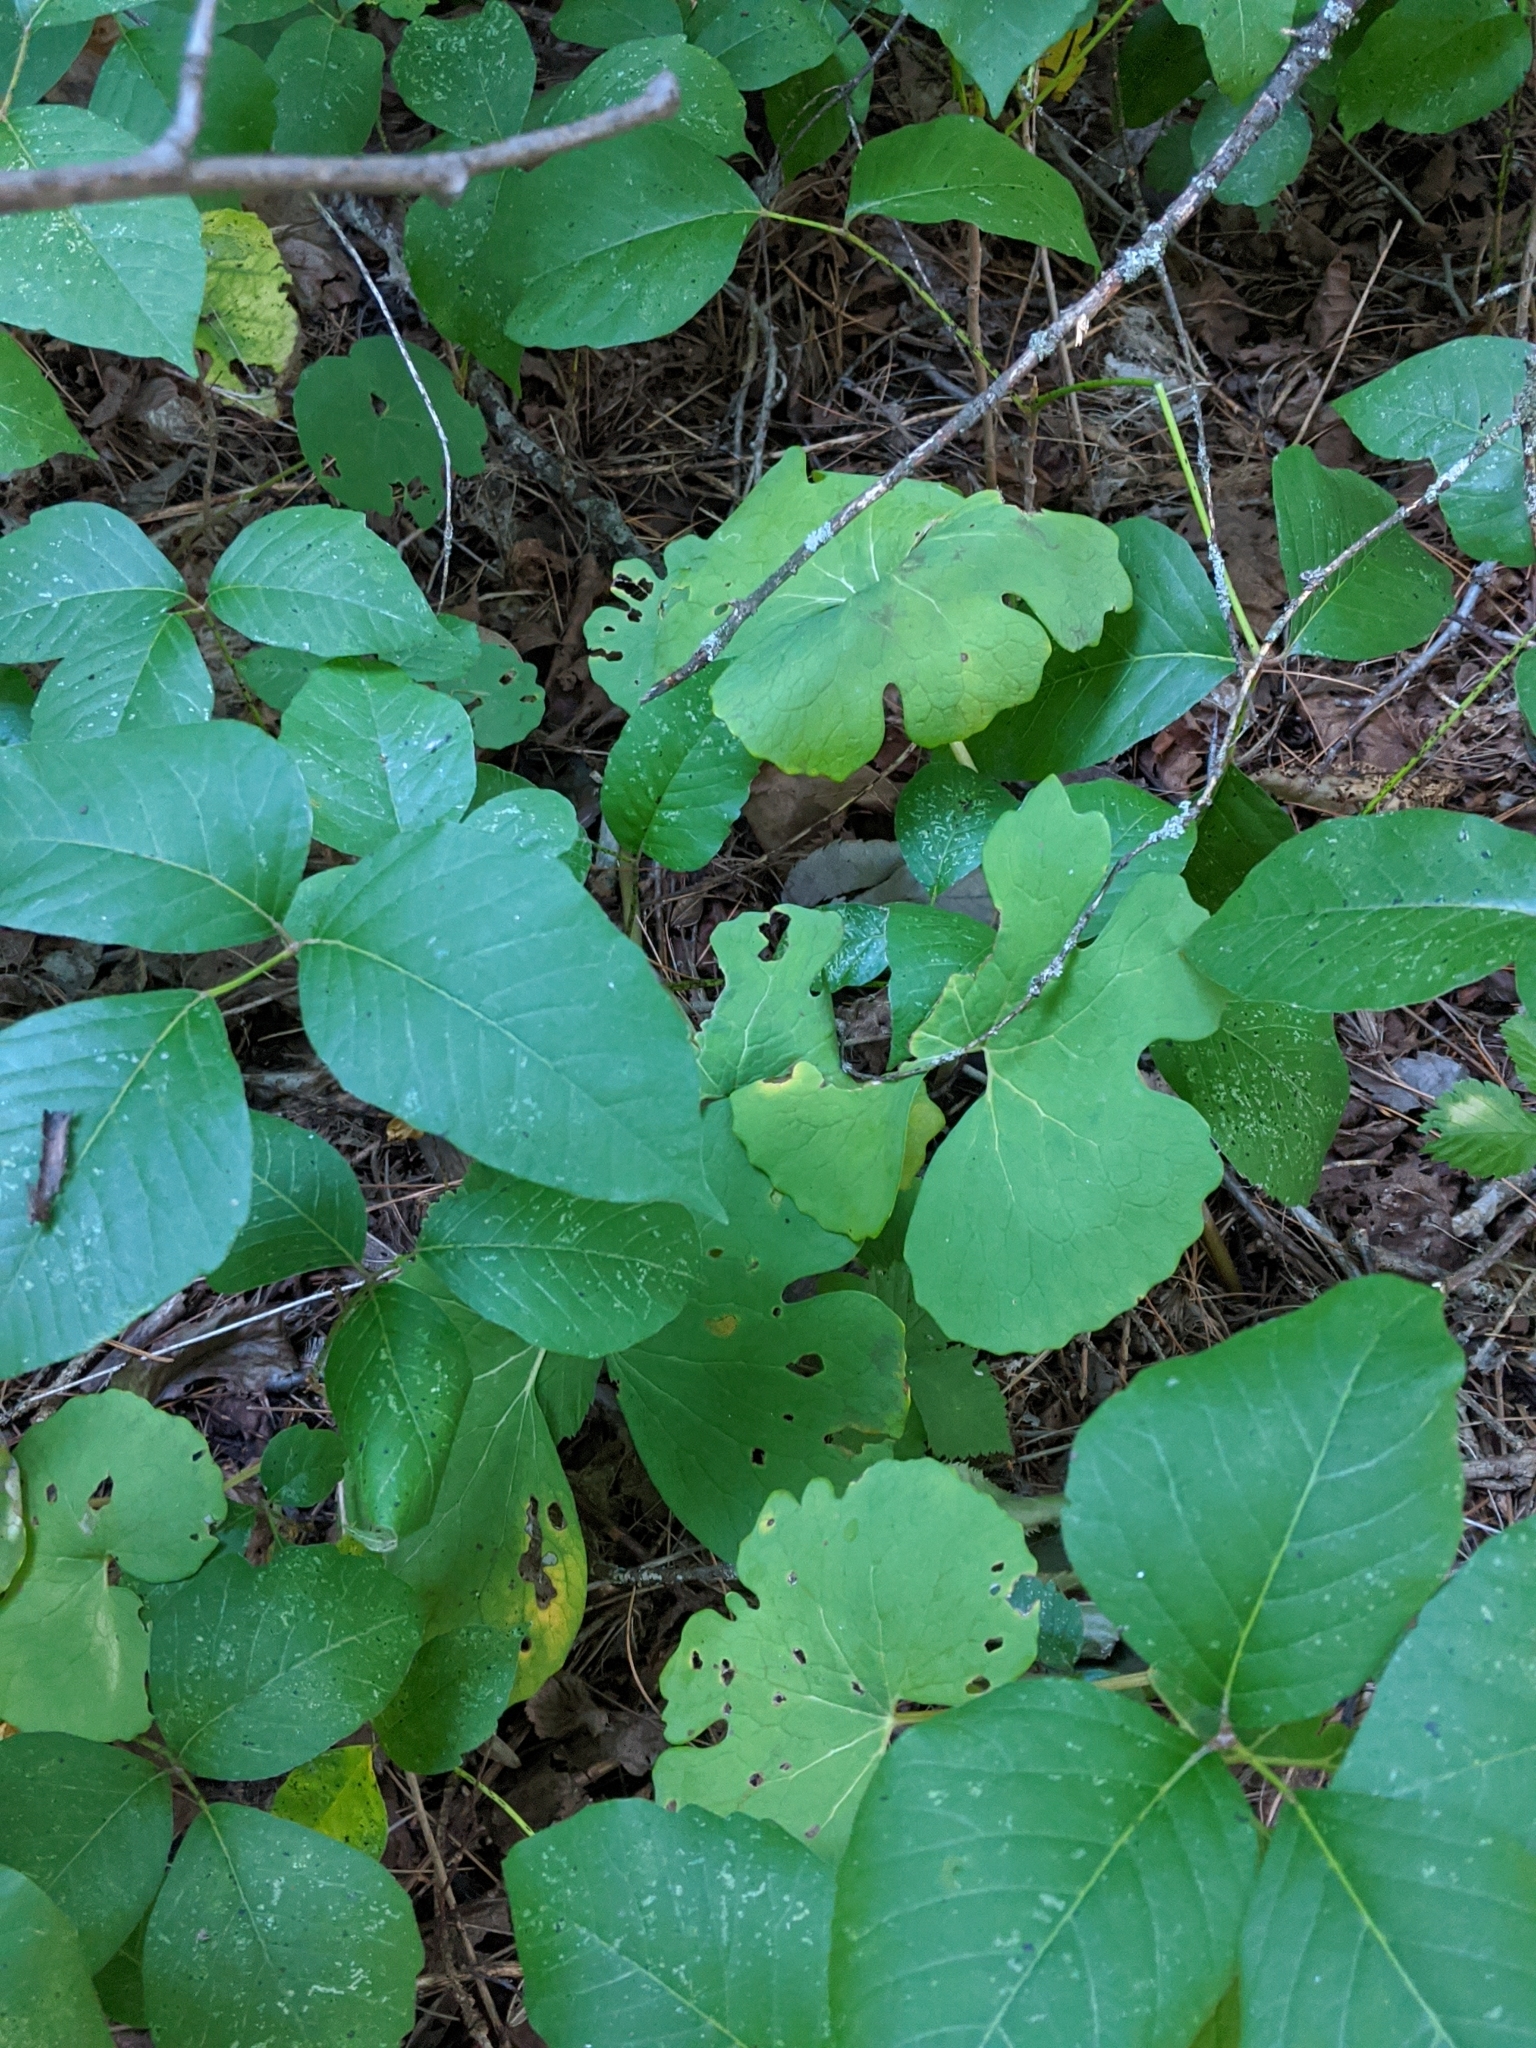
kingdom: Plantae
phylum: Tracheophyta
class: Magnoliopsida
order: Ranunculales
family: Papaveraceae
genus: Sanguinaria
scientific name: Sanguinaria canadensis
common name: Bloodroot
